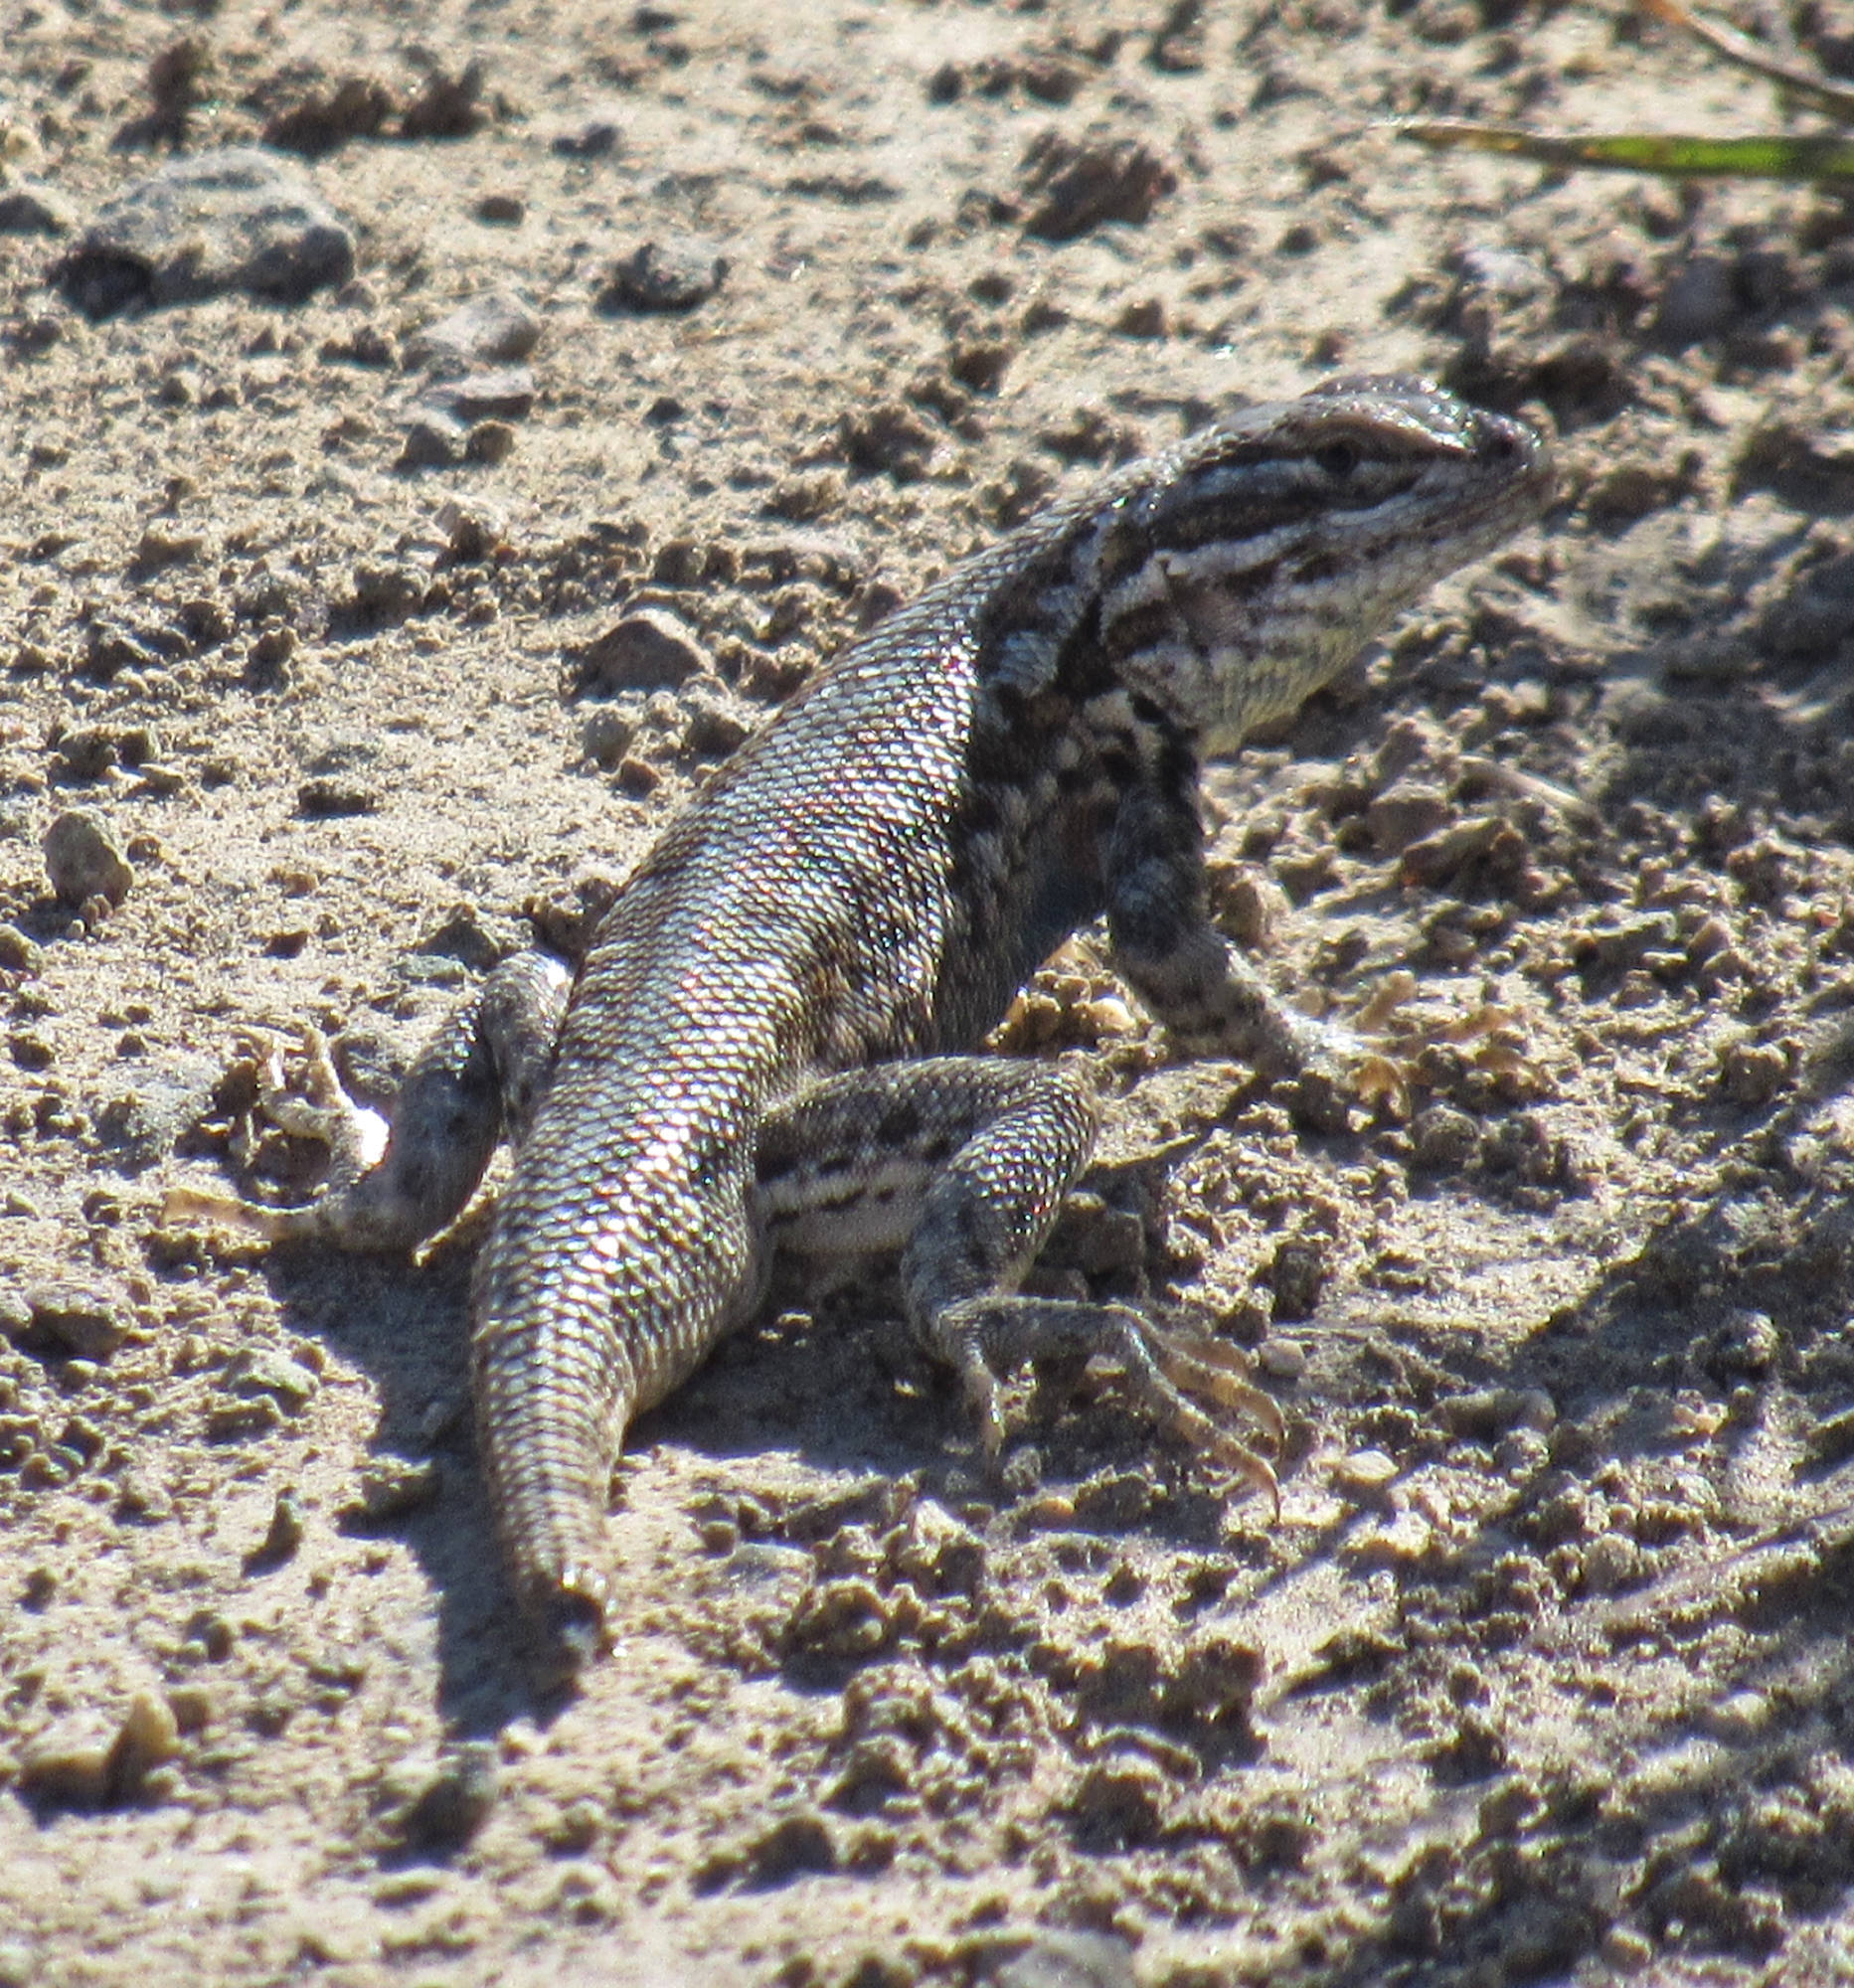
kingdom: Animalia
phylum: Chordata
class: Squamata
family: Phrynosomatidae
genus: Sceloporus
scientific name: Sceloporus graciosus
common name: Sagebrush lizard
